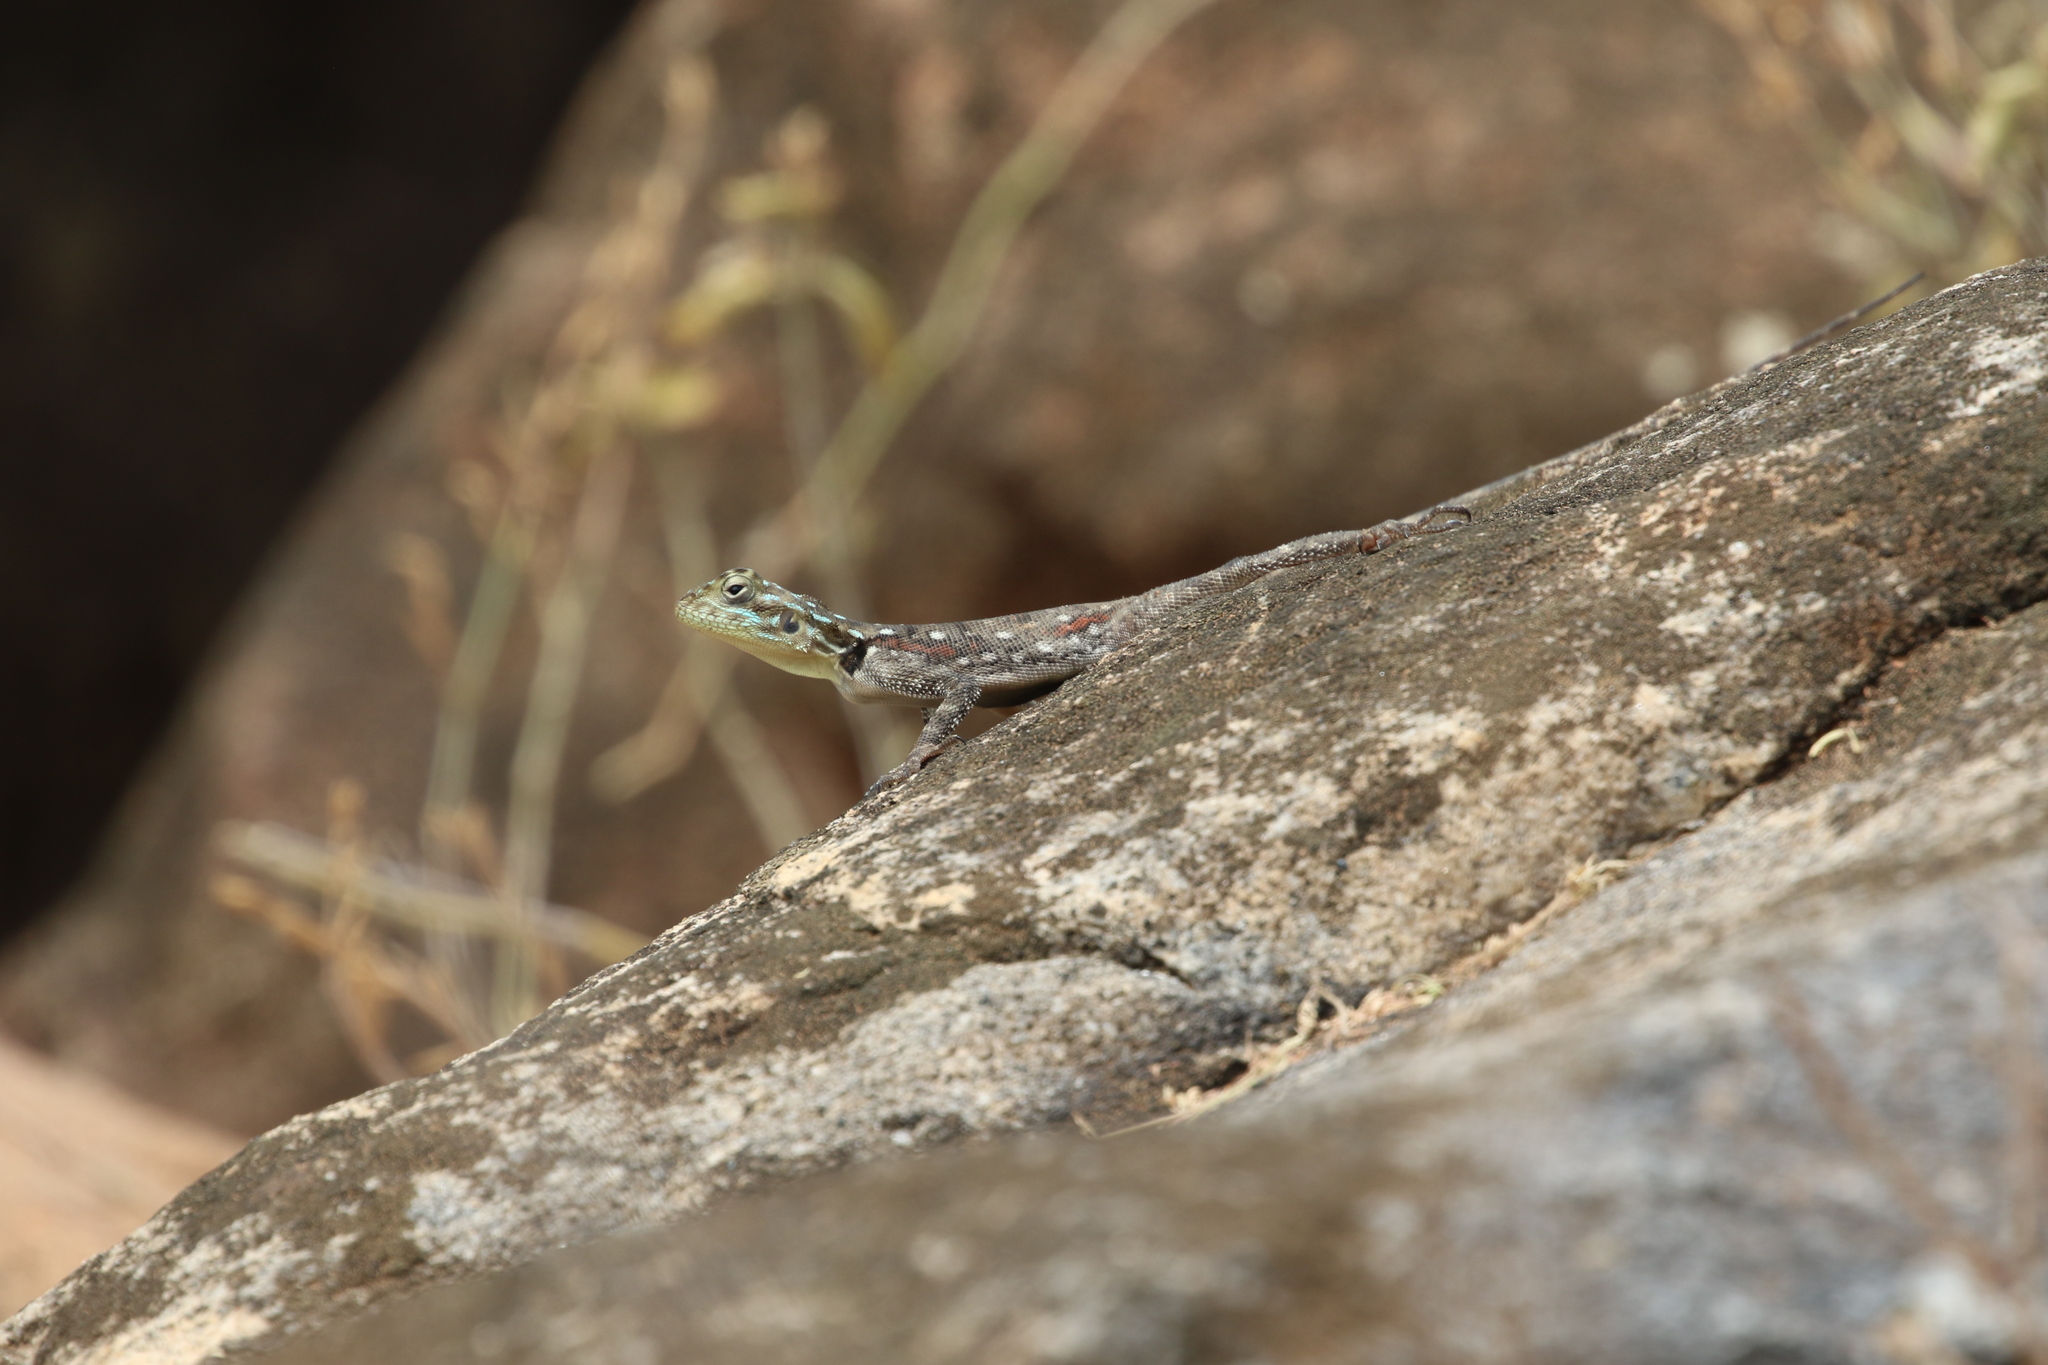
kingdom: Animalia
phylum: Chordata
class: Squamata
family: Agamidae
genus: Agama
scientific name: Agama lionotus
